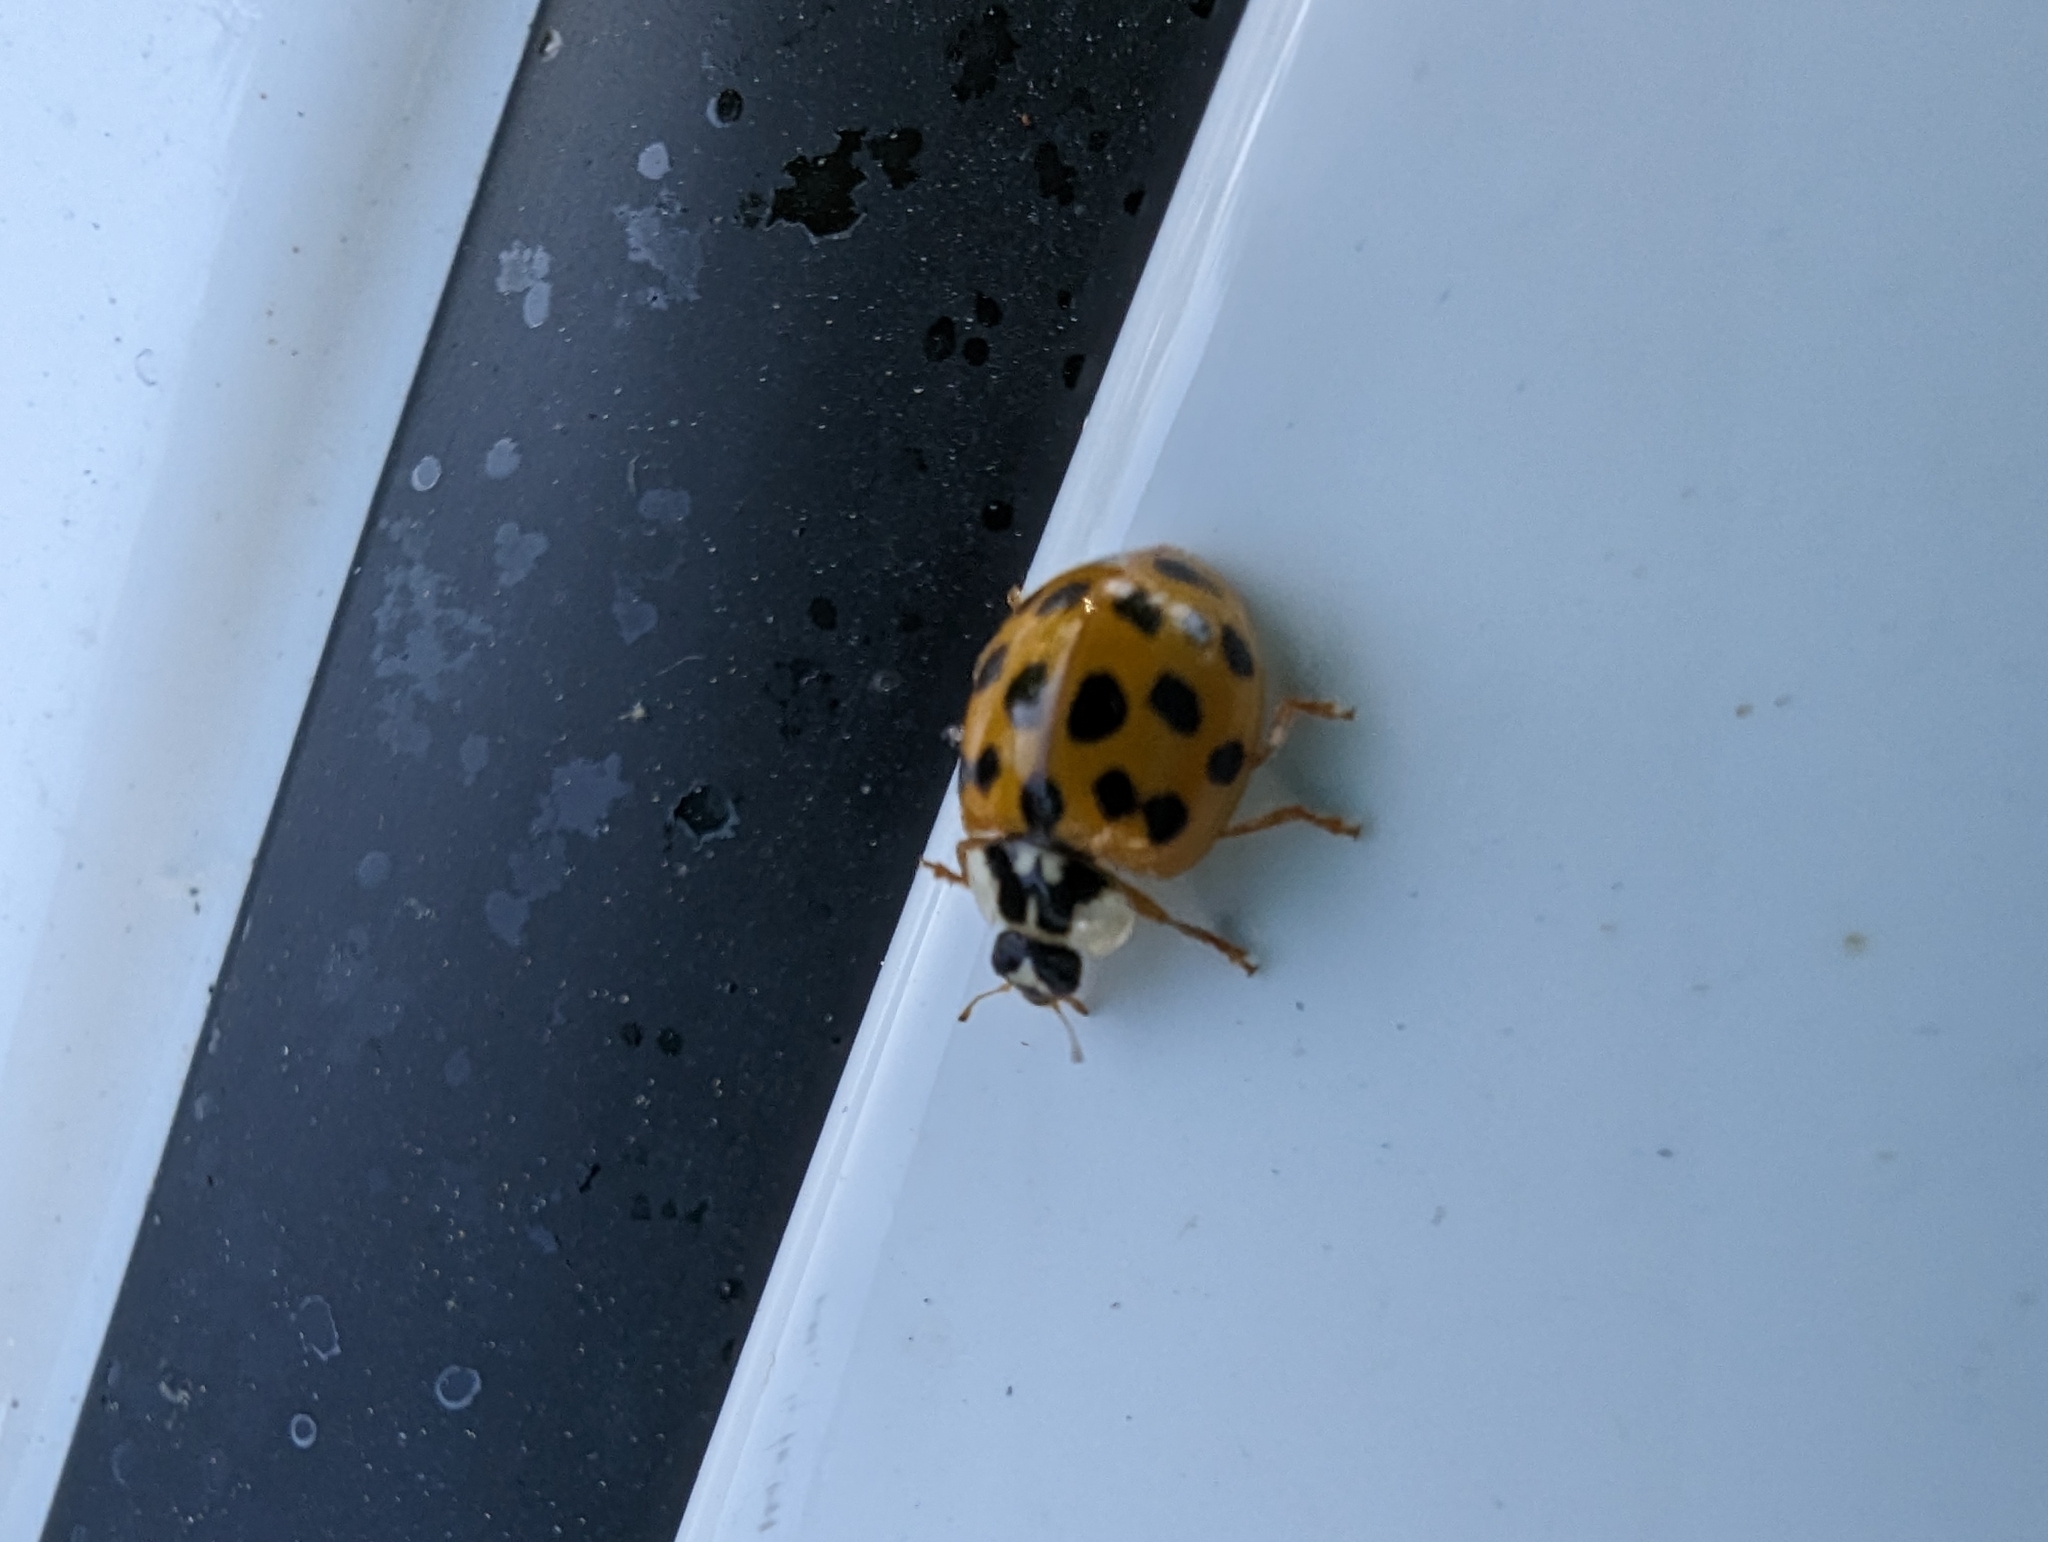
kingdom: Animalia
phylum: Arthropoda
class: Insecta
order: Coleoptera
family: Coccinellidae
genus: Harmonia
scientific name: Harmonia axyridis
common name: Harlequin ladybird
